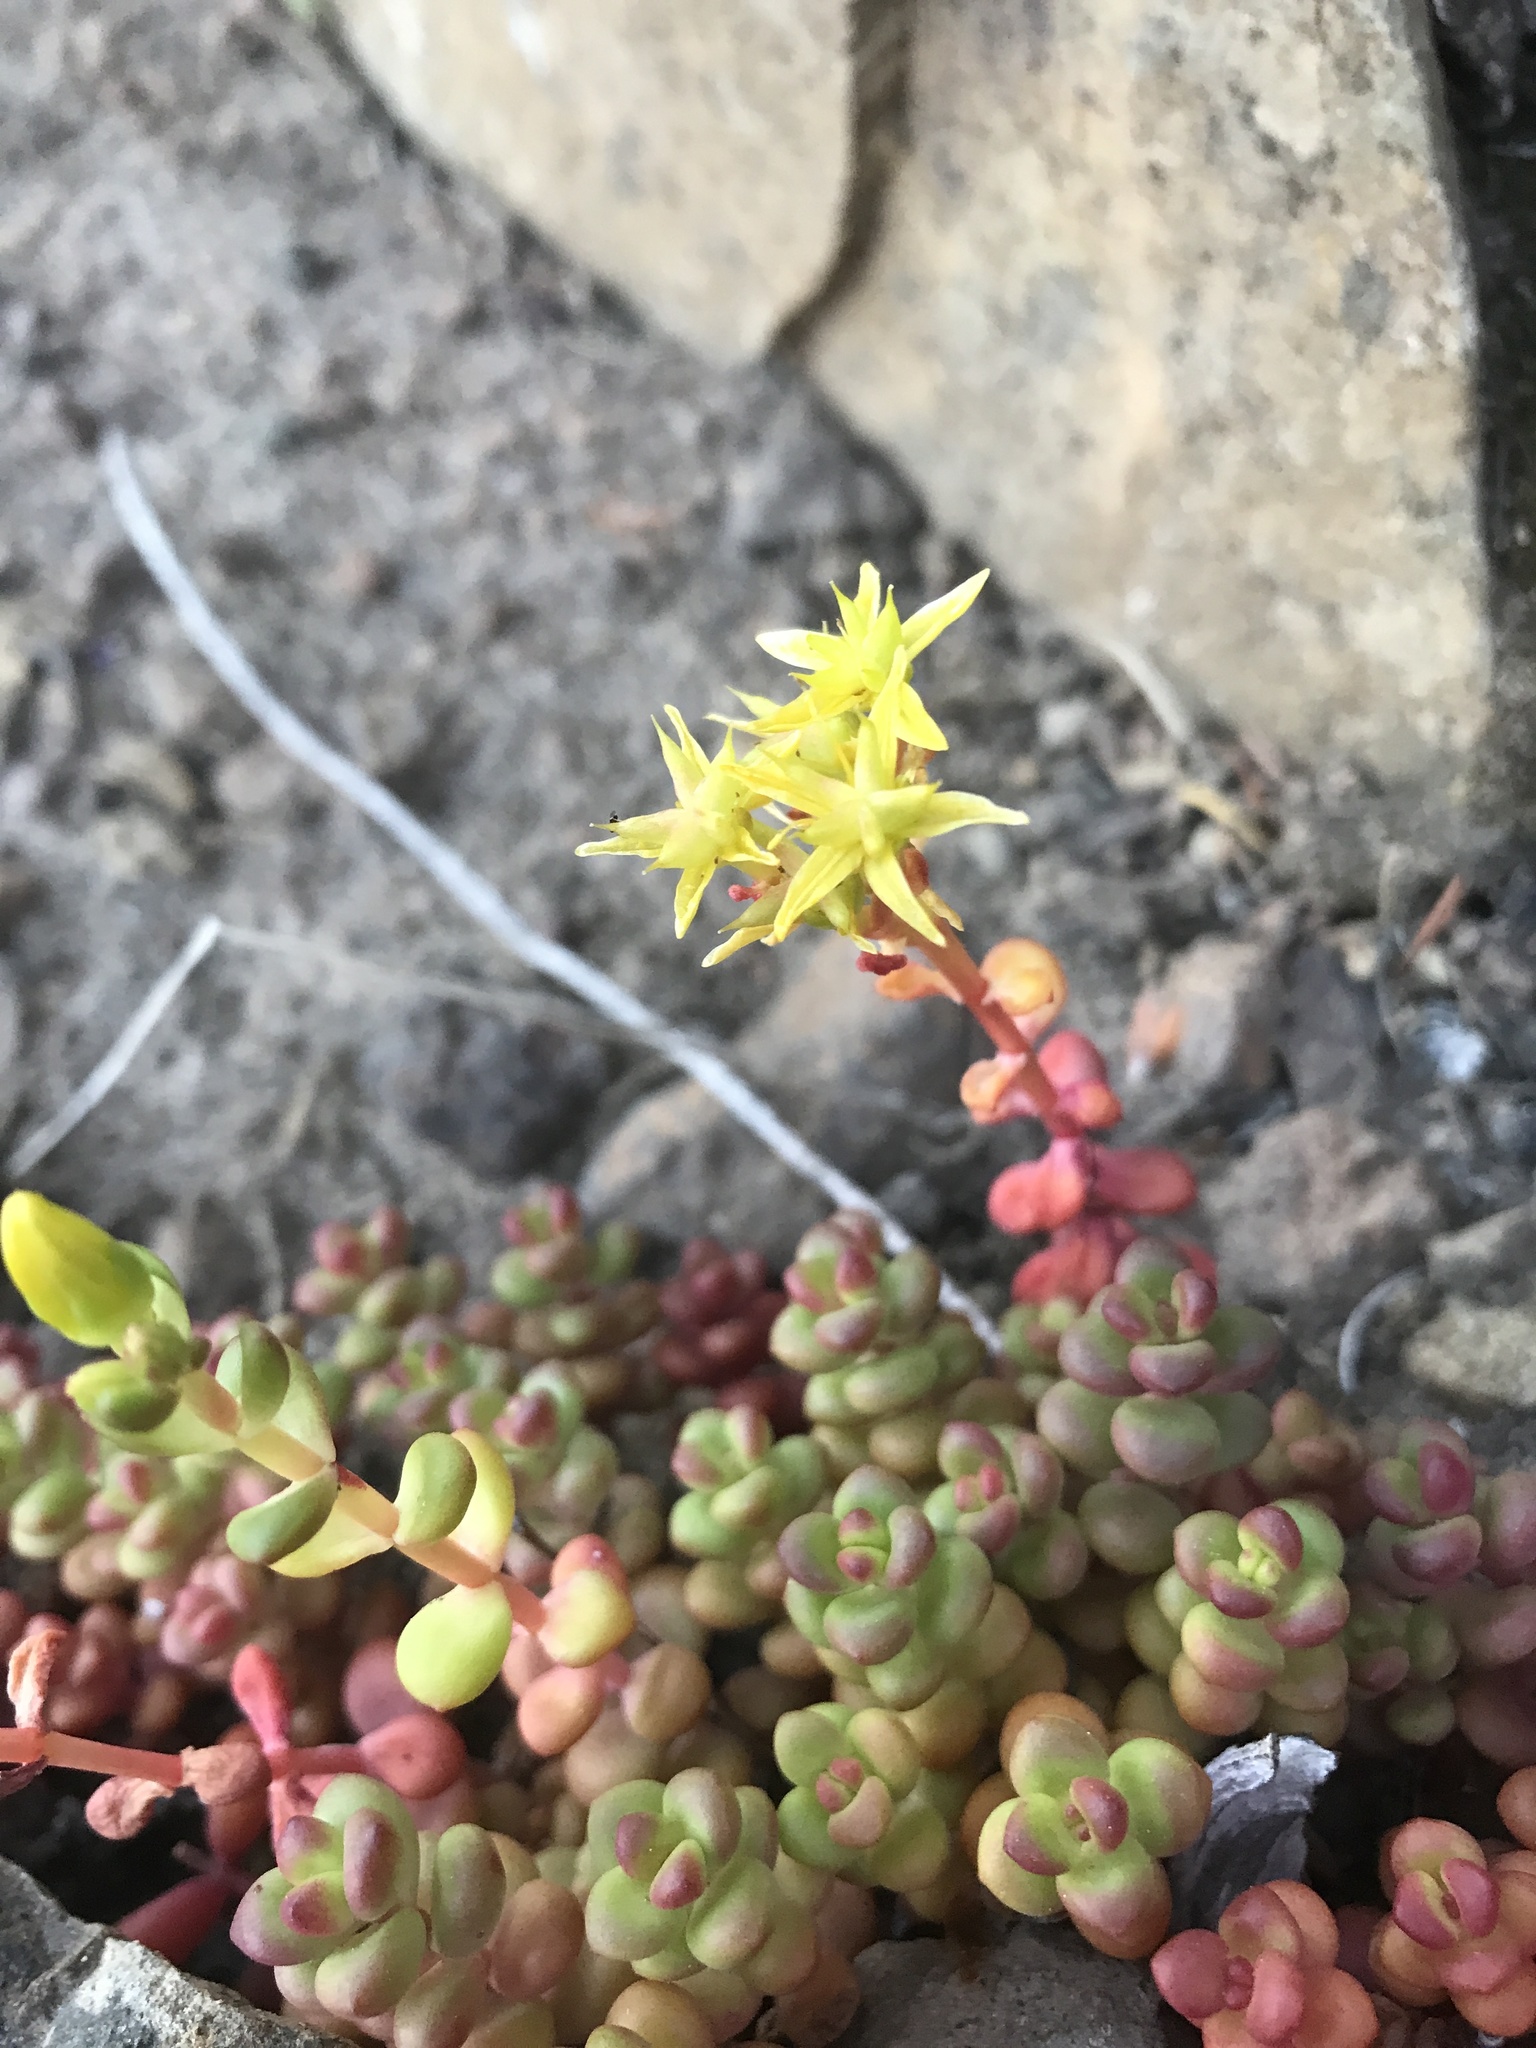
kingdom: Plantae
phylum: Tracheophyta
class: Magnoliopsida
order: Saxifragales
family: Crassulaceae
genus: Sedum
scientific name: Sedum divergens
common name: Cascade stonecrop
